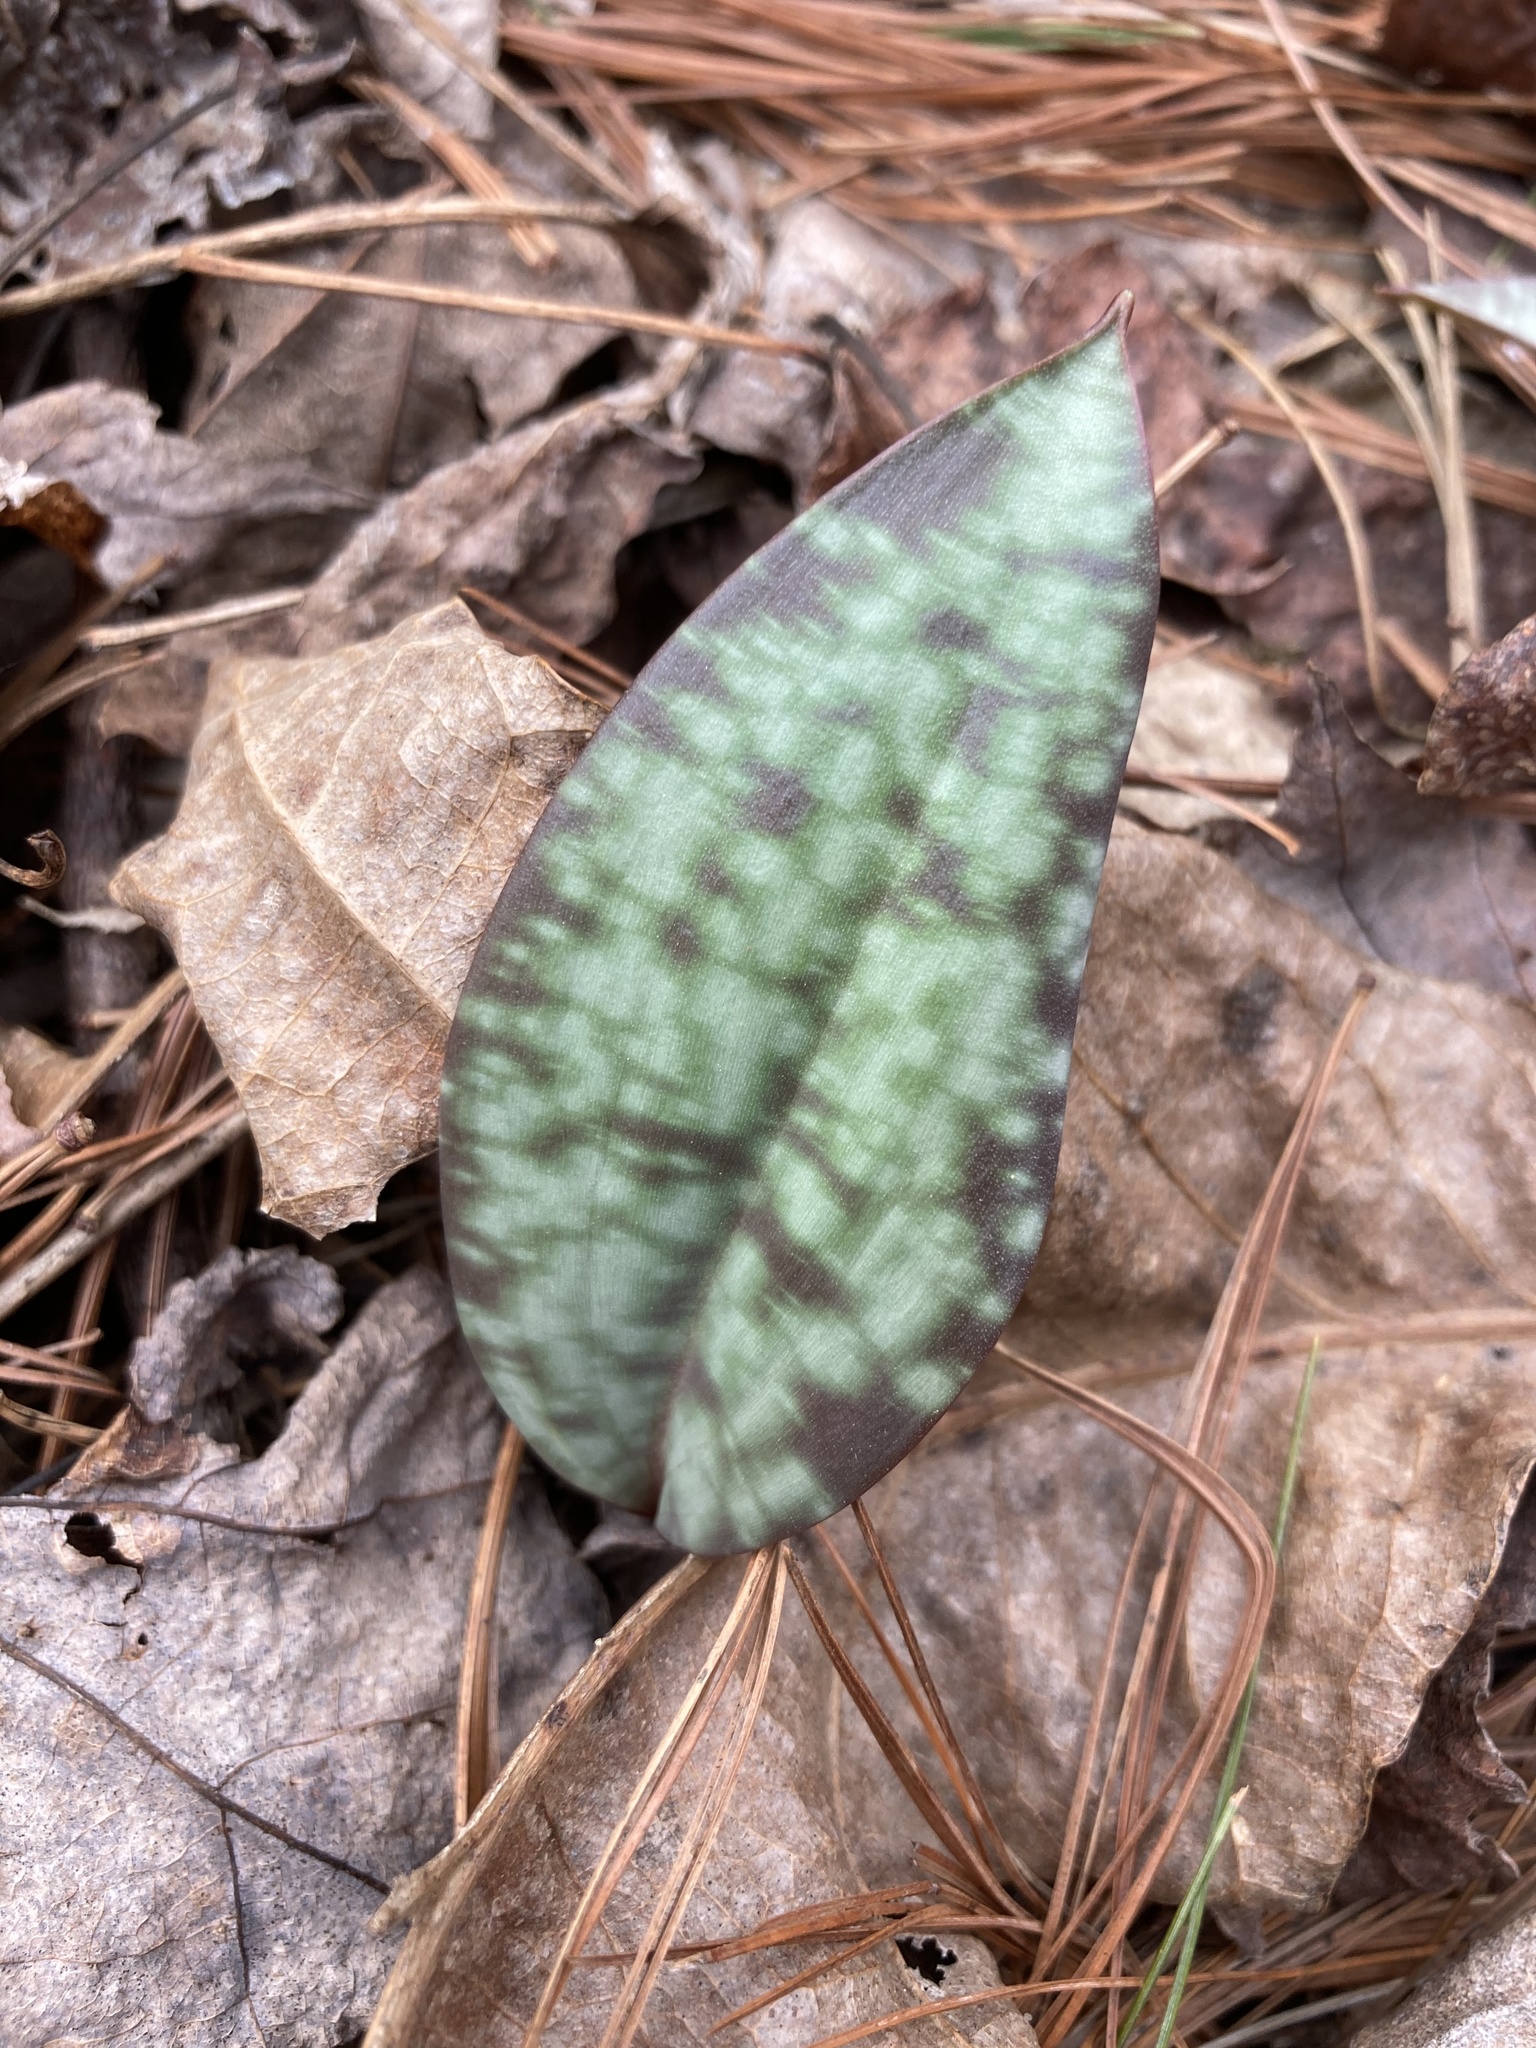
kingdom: Plantae
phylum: Tracheophyta
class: Liliopsida
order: Liliales
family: Liliaceae
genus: Erythronium
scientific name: Erythronium americanum
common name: Yellow adder's-tongue
